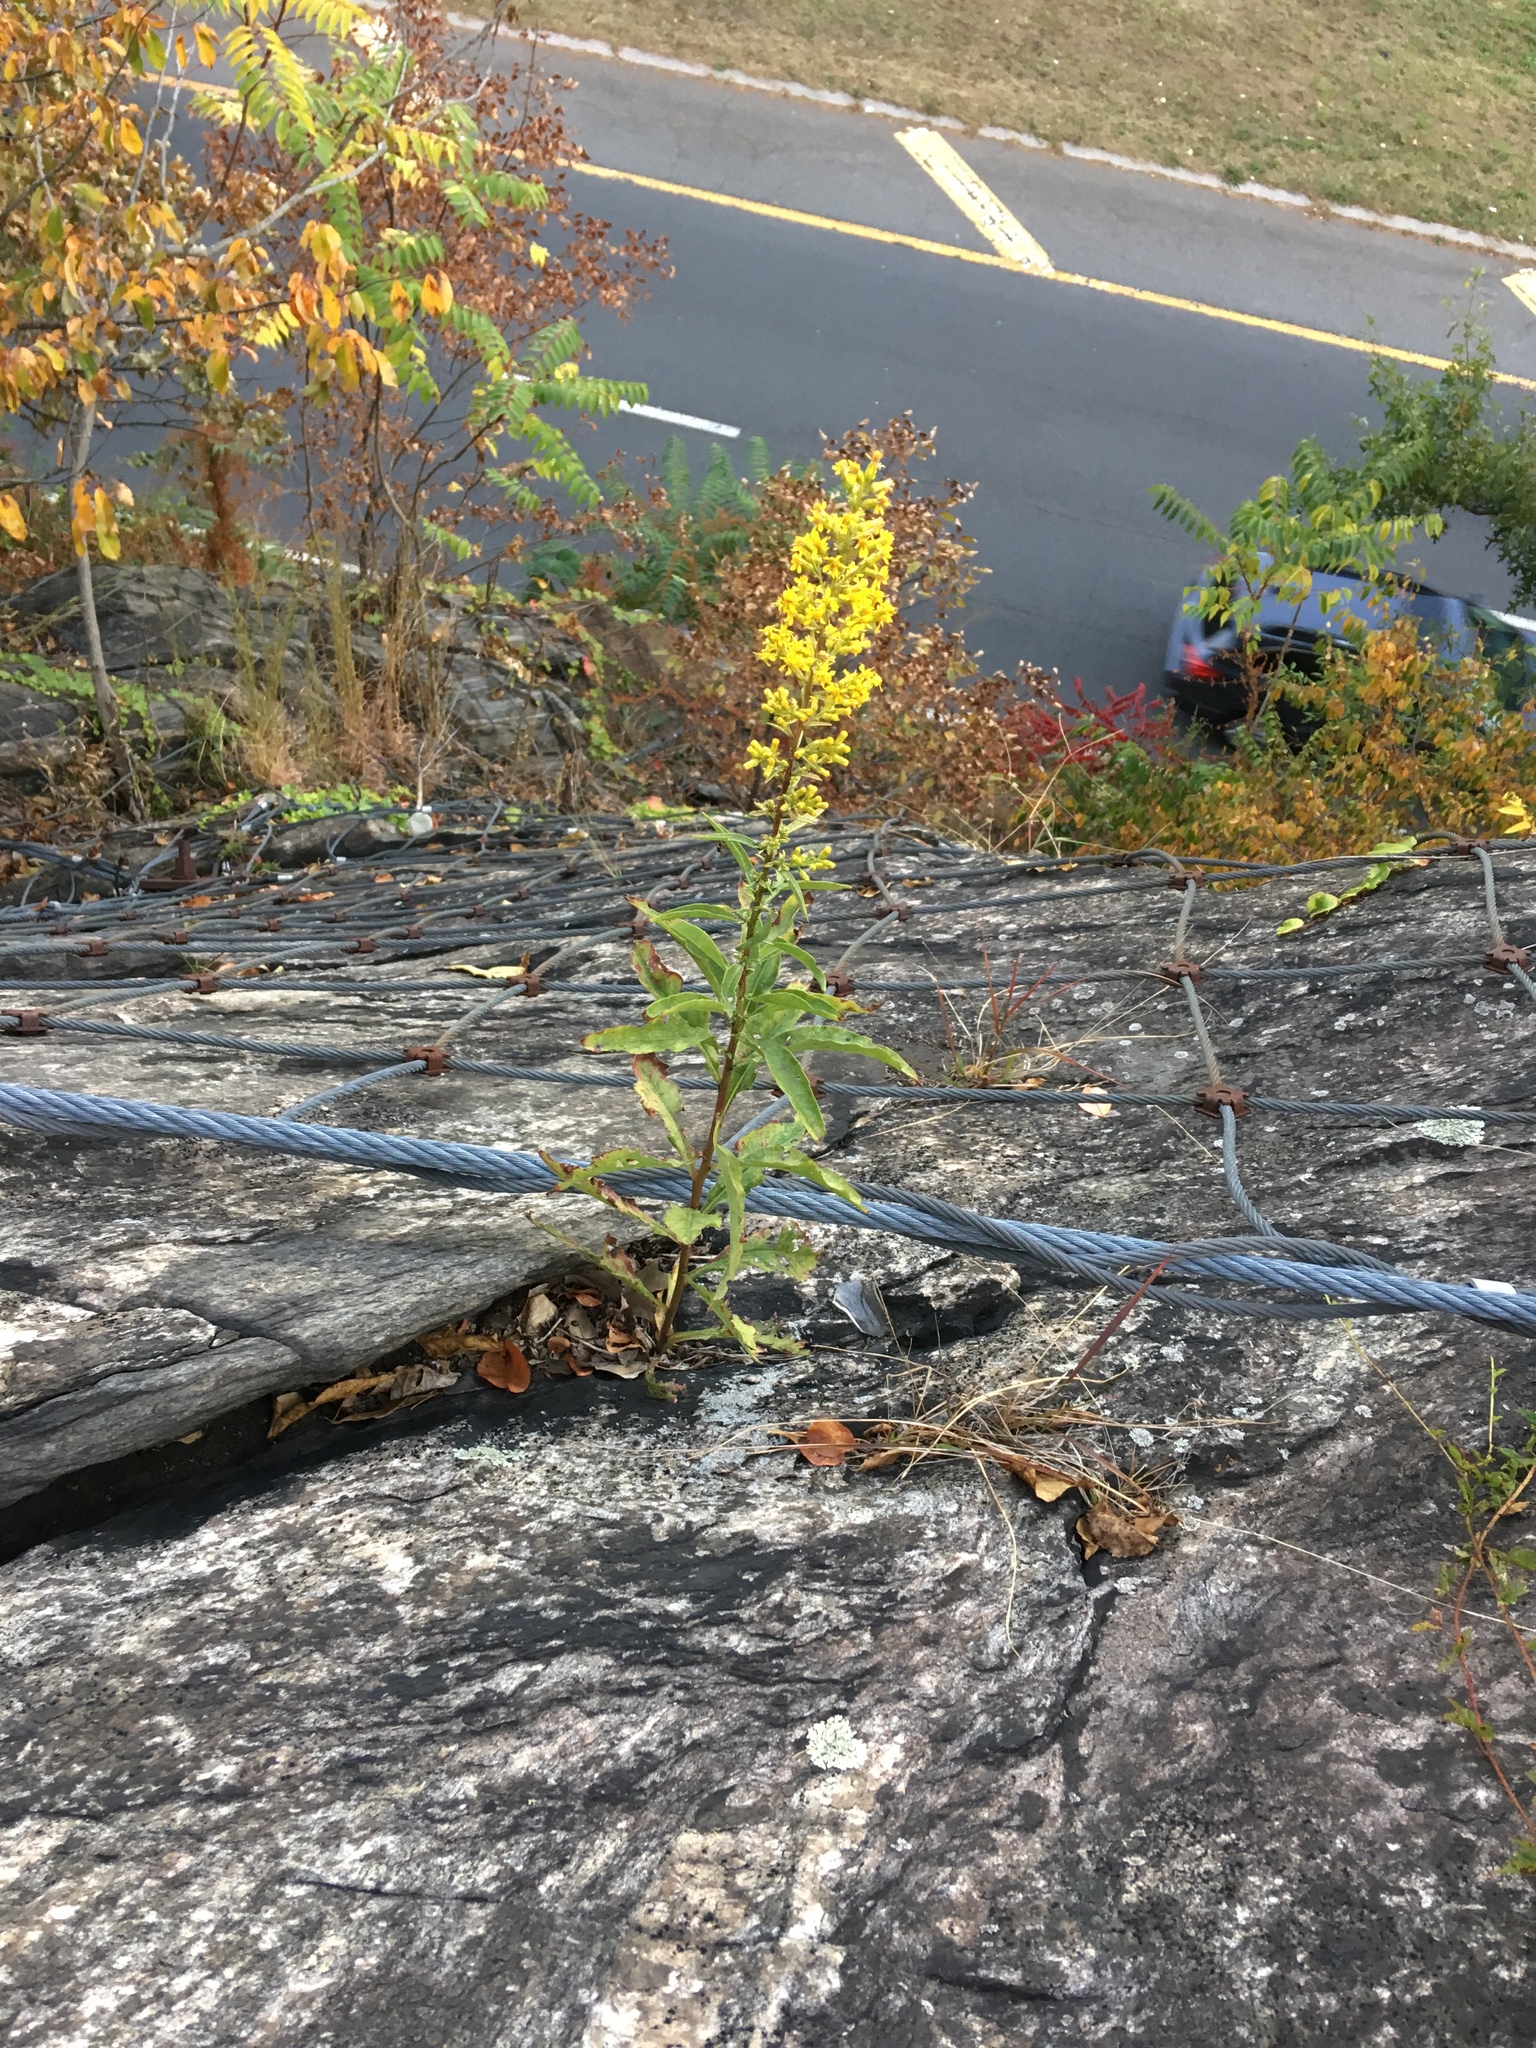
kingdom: Plantae
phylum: Tracheophyta
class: Magnoliopsida
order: Asterales
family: Asteraceae
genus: Solidago
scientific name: Solidago speciosa
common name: Showy goldenrod
